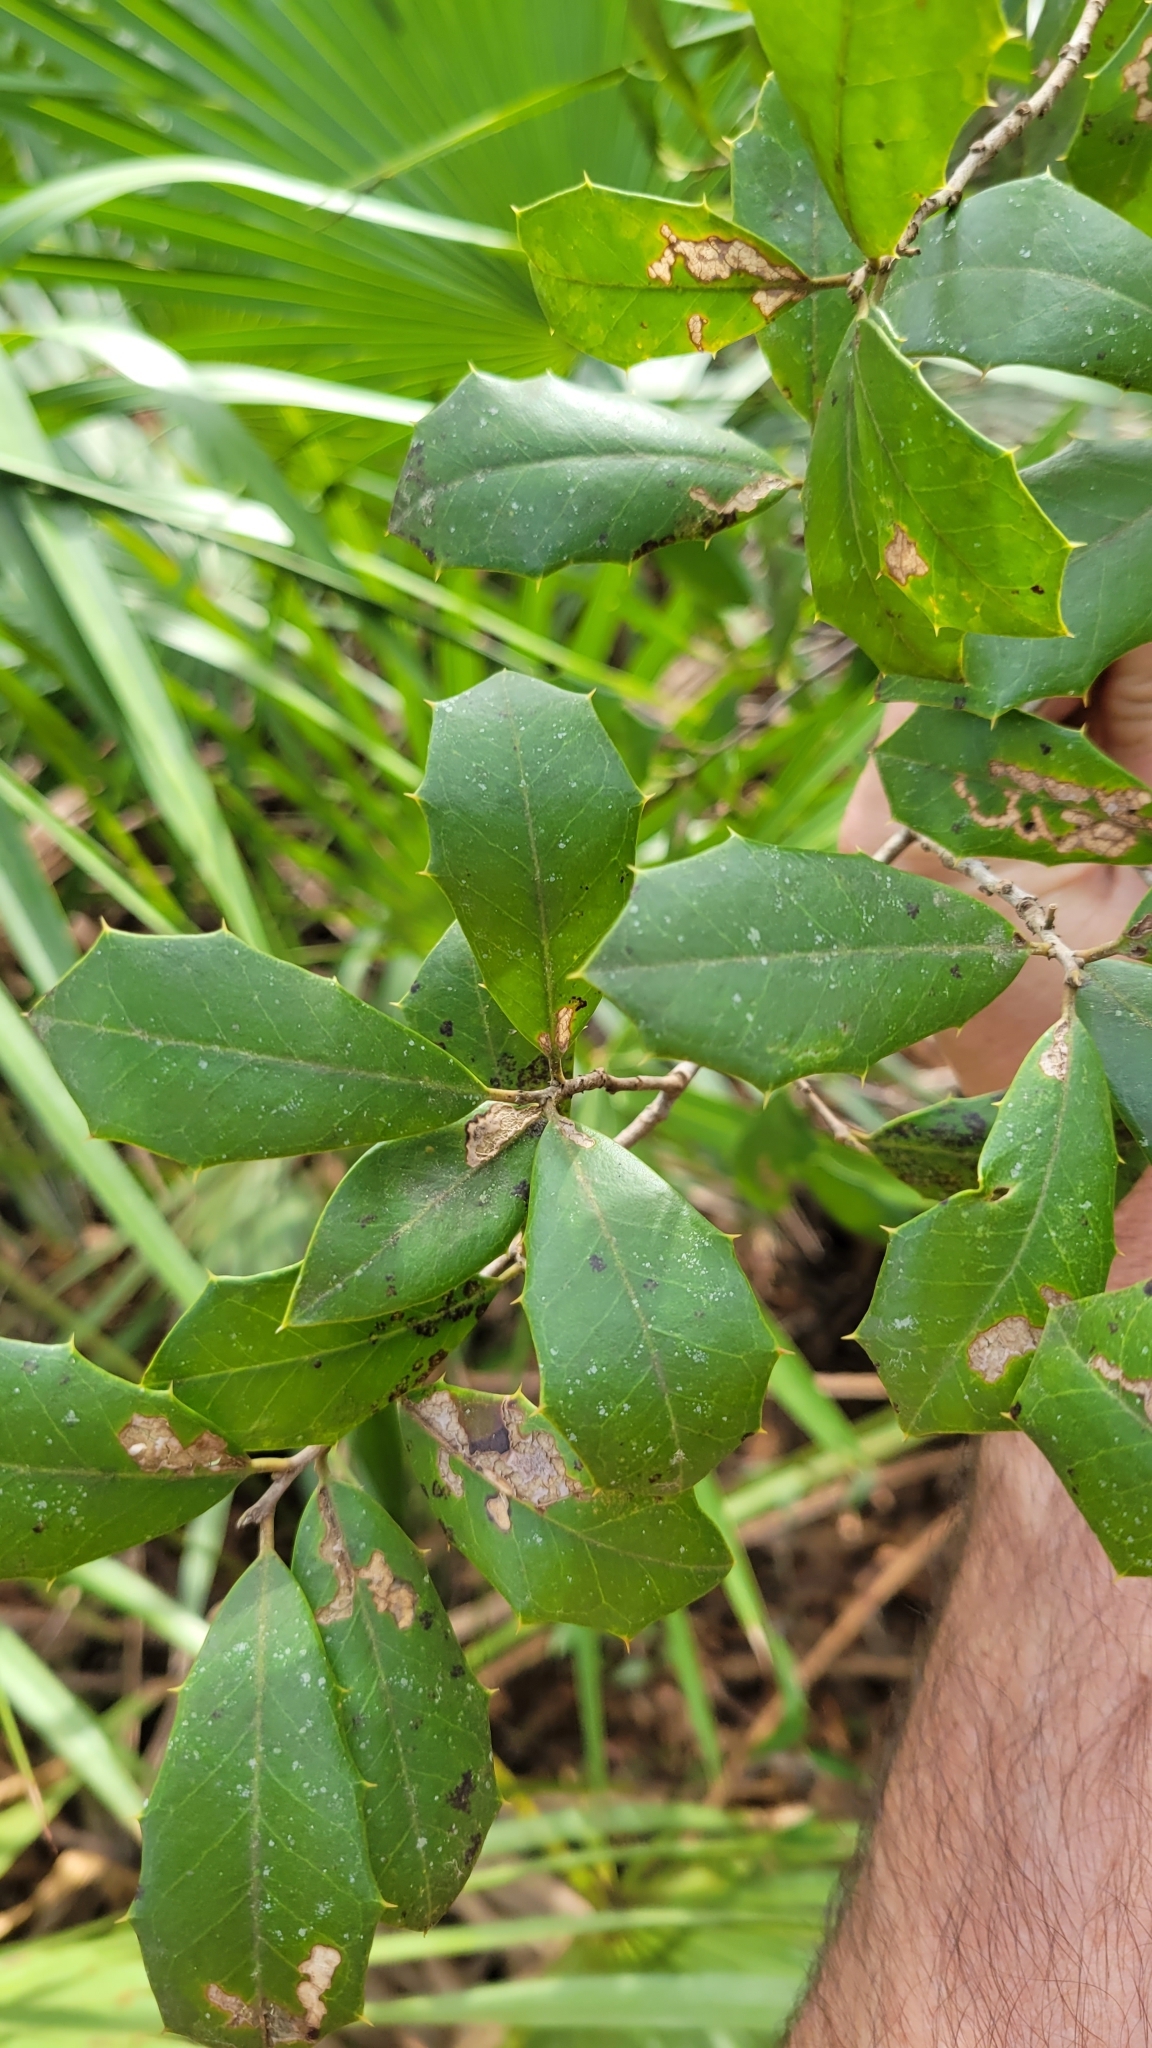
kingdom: Plantae
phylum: Tracheophyta
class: Magnoliopsida
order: Aquifoliales
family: Aquifoliaceae
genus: Ilex
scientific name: Ilex opaca
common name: American holly
